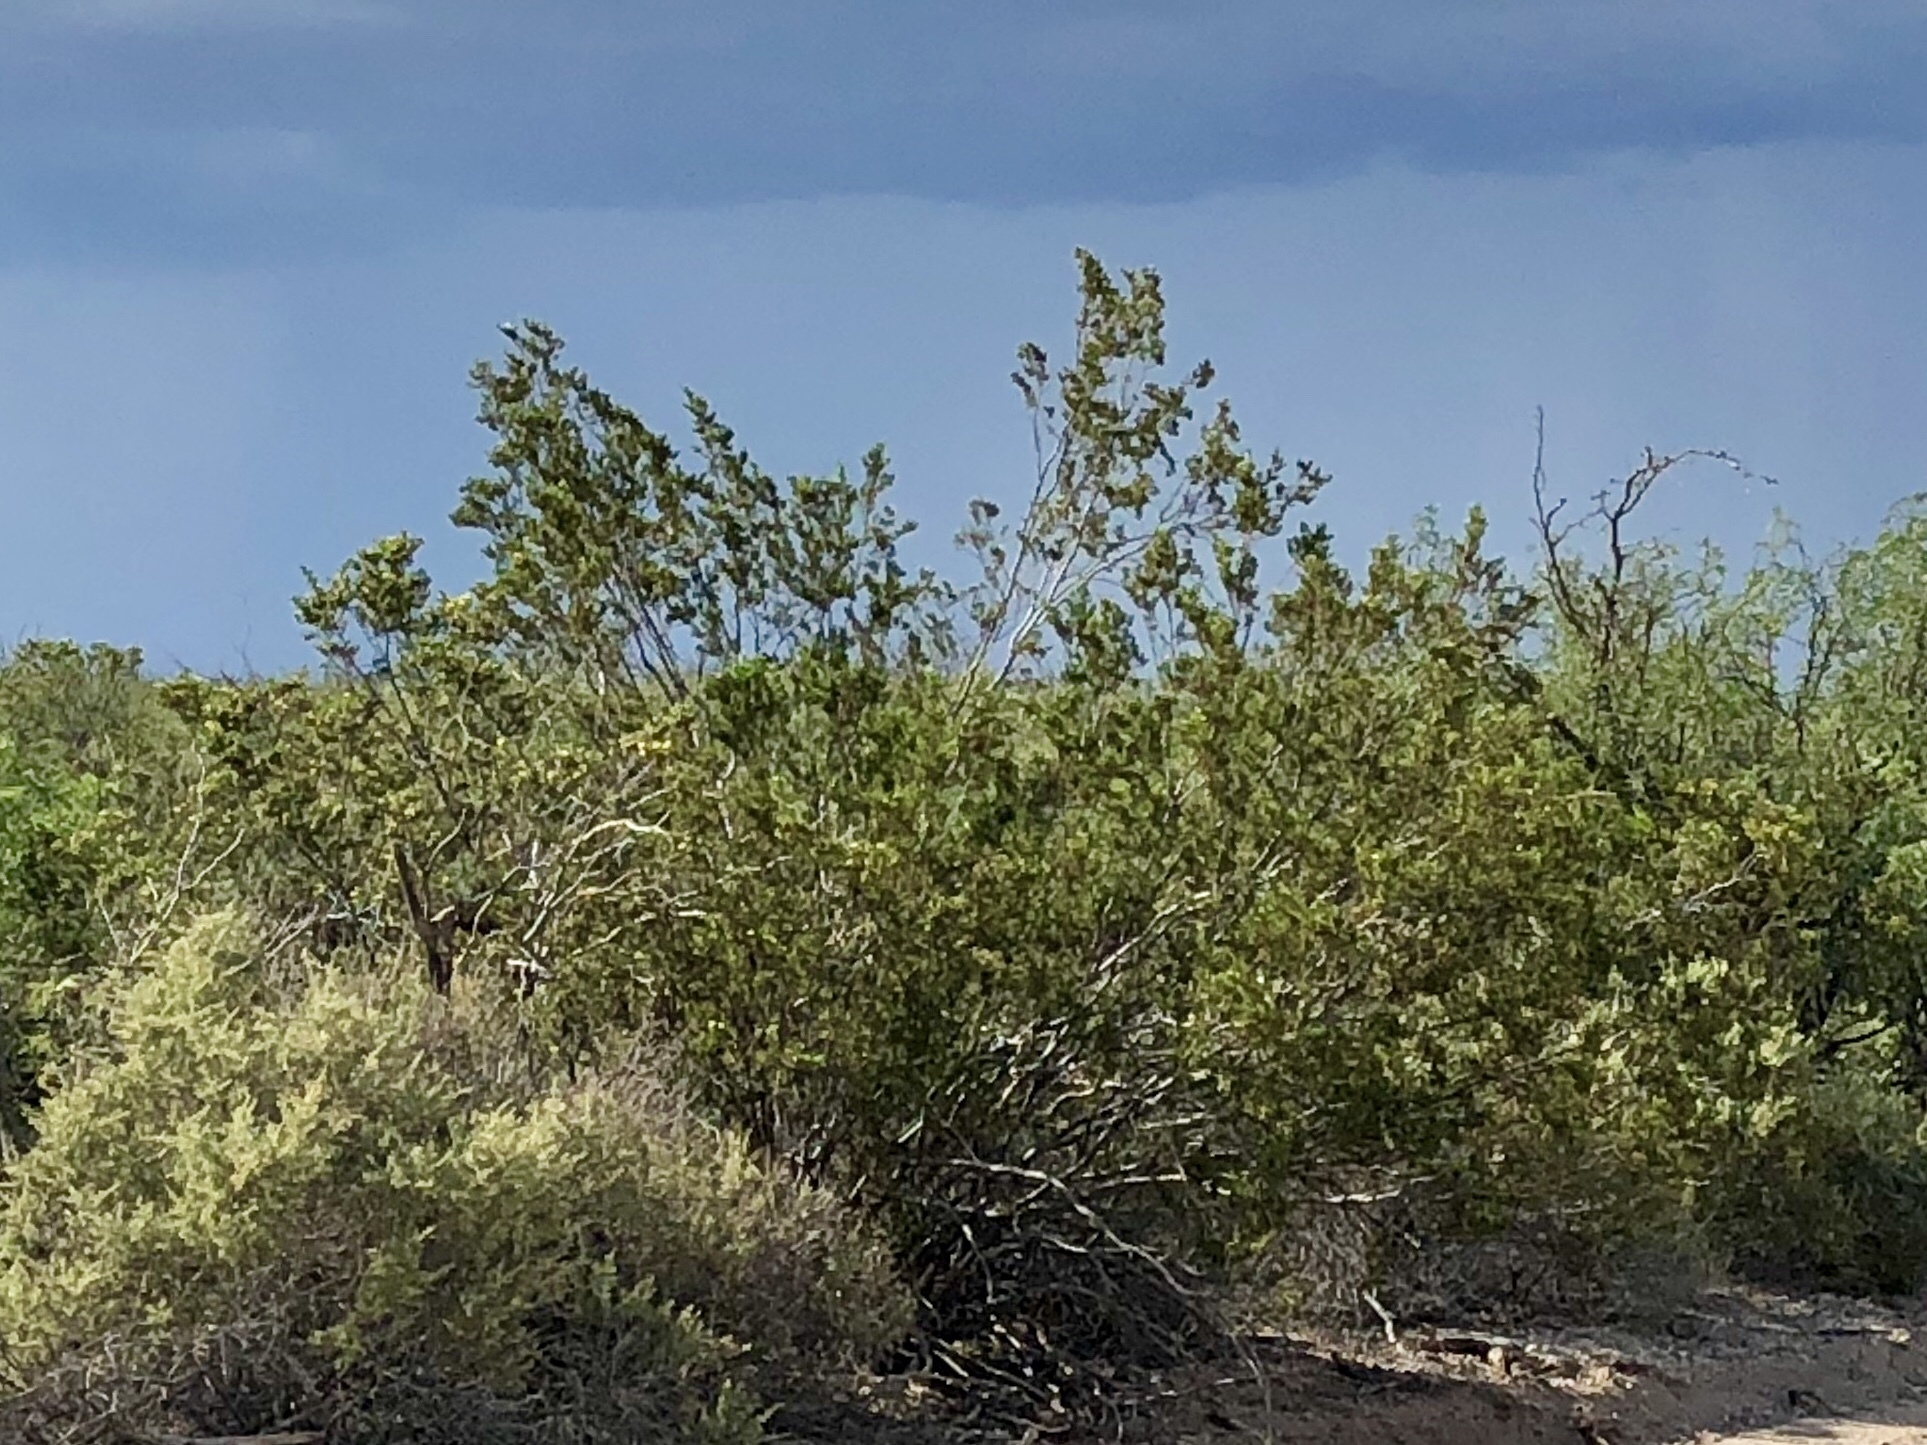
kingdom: Plantae
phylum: Tracheophyta
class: Magnoliopsida
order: Zygophyllales
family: Zygophyllaceae
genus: Larrea
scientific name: Larrea tridentata
